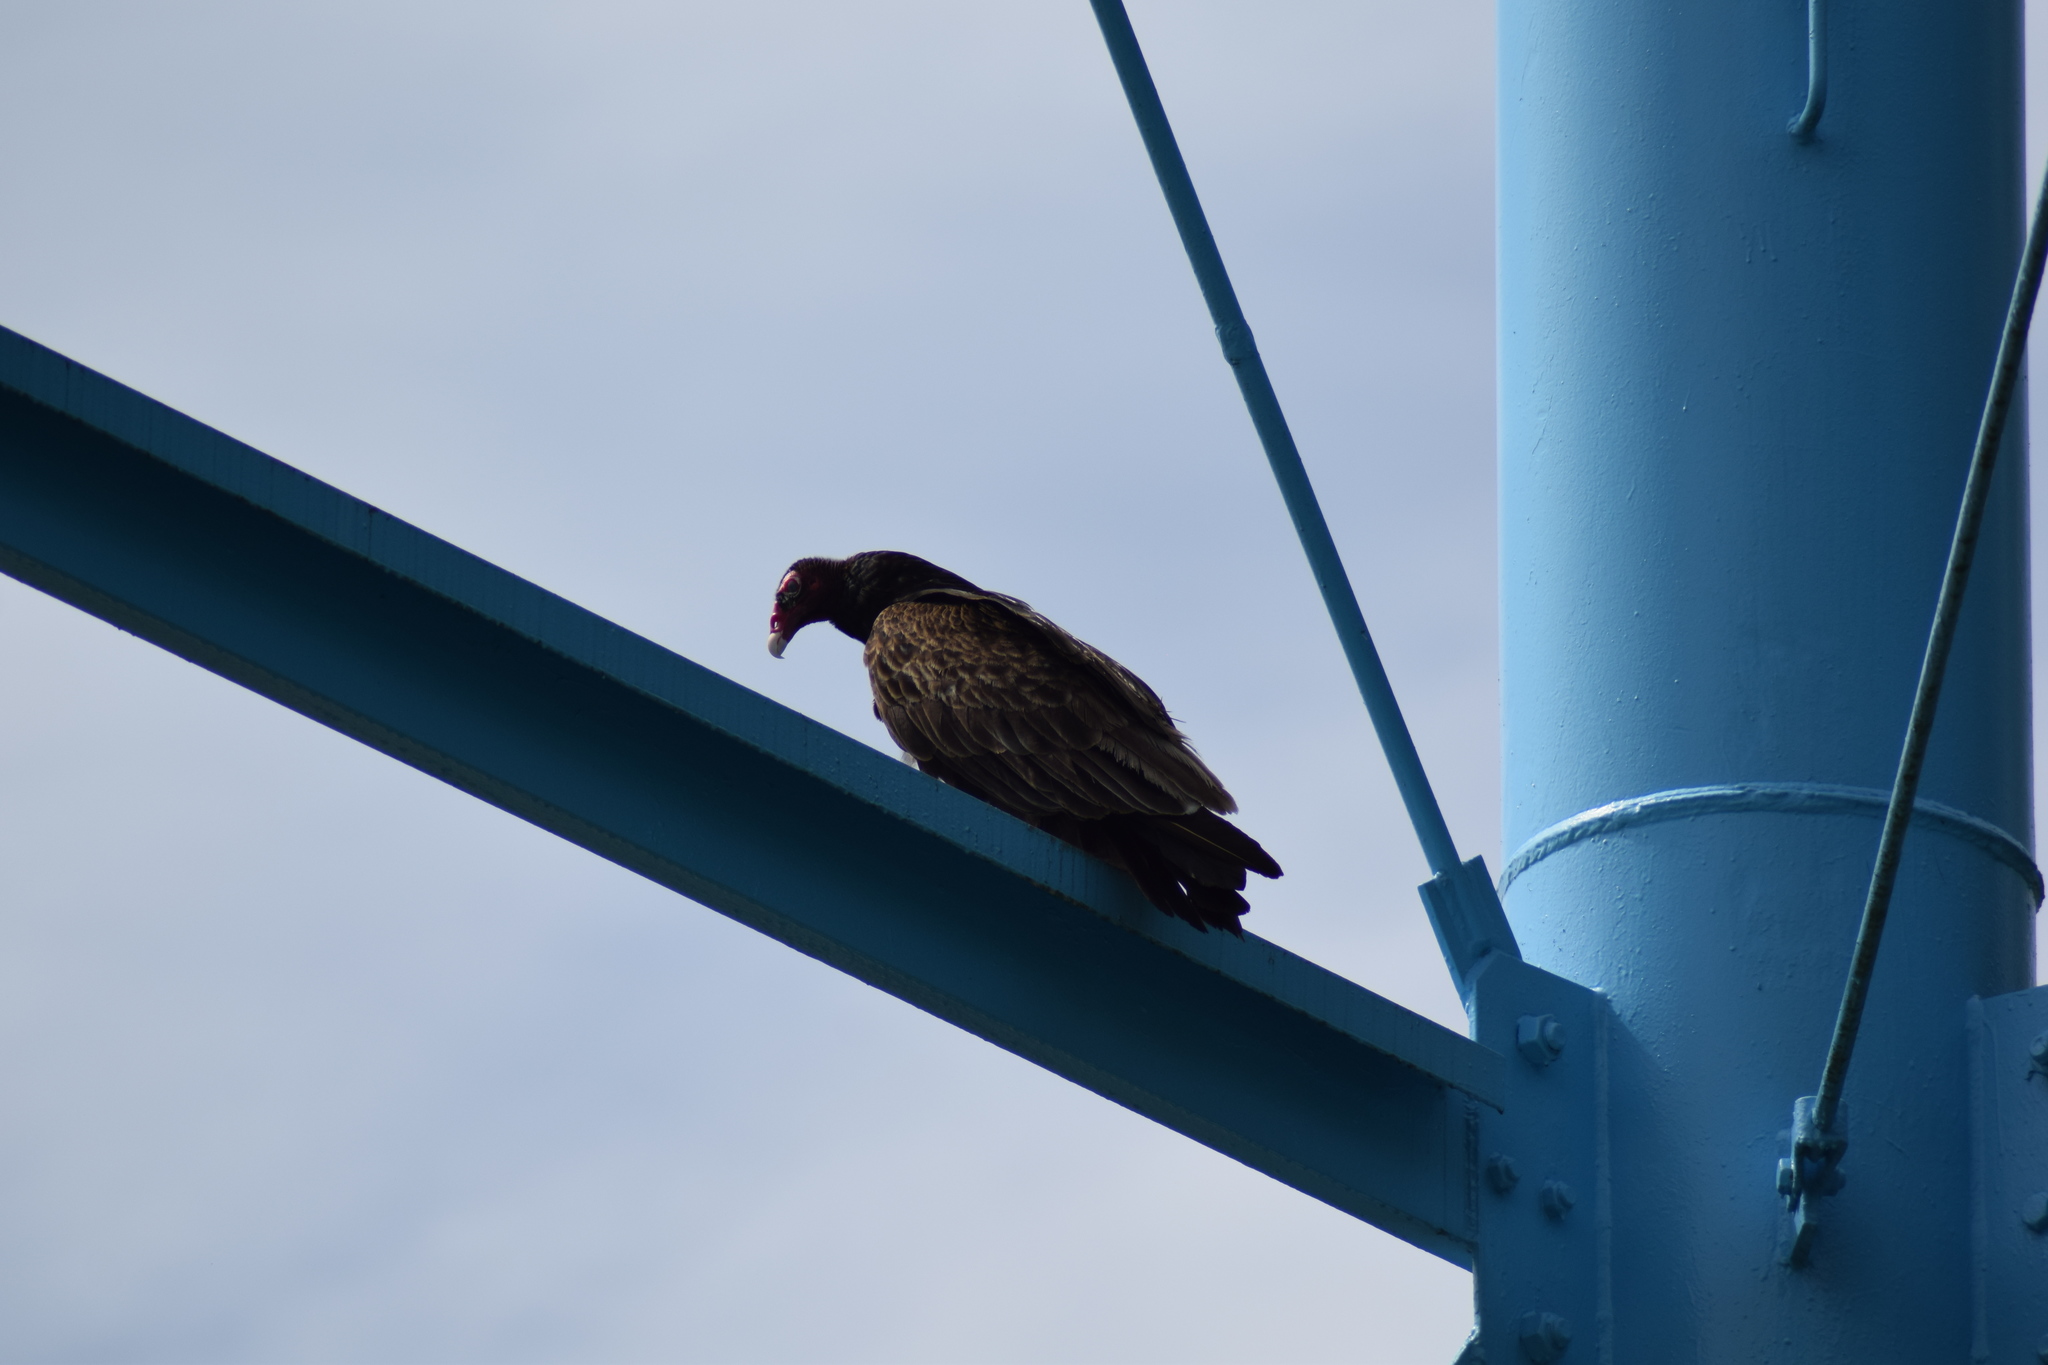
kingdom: Animalia
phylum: Chordata
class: Aves
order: Accipitriformes
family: Cathartidae
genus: Cathartes
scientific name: Cathartes aura
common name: Turkey vulture
